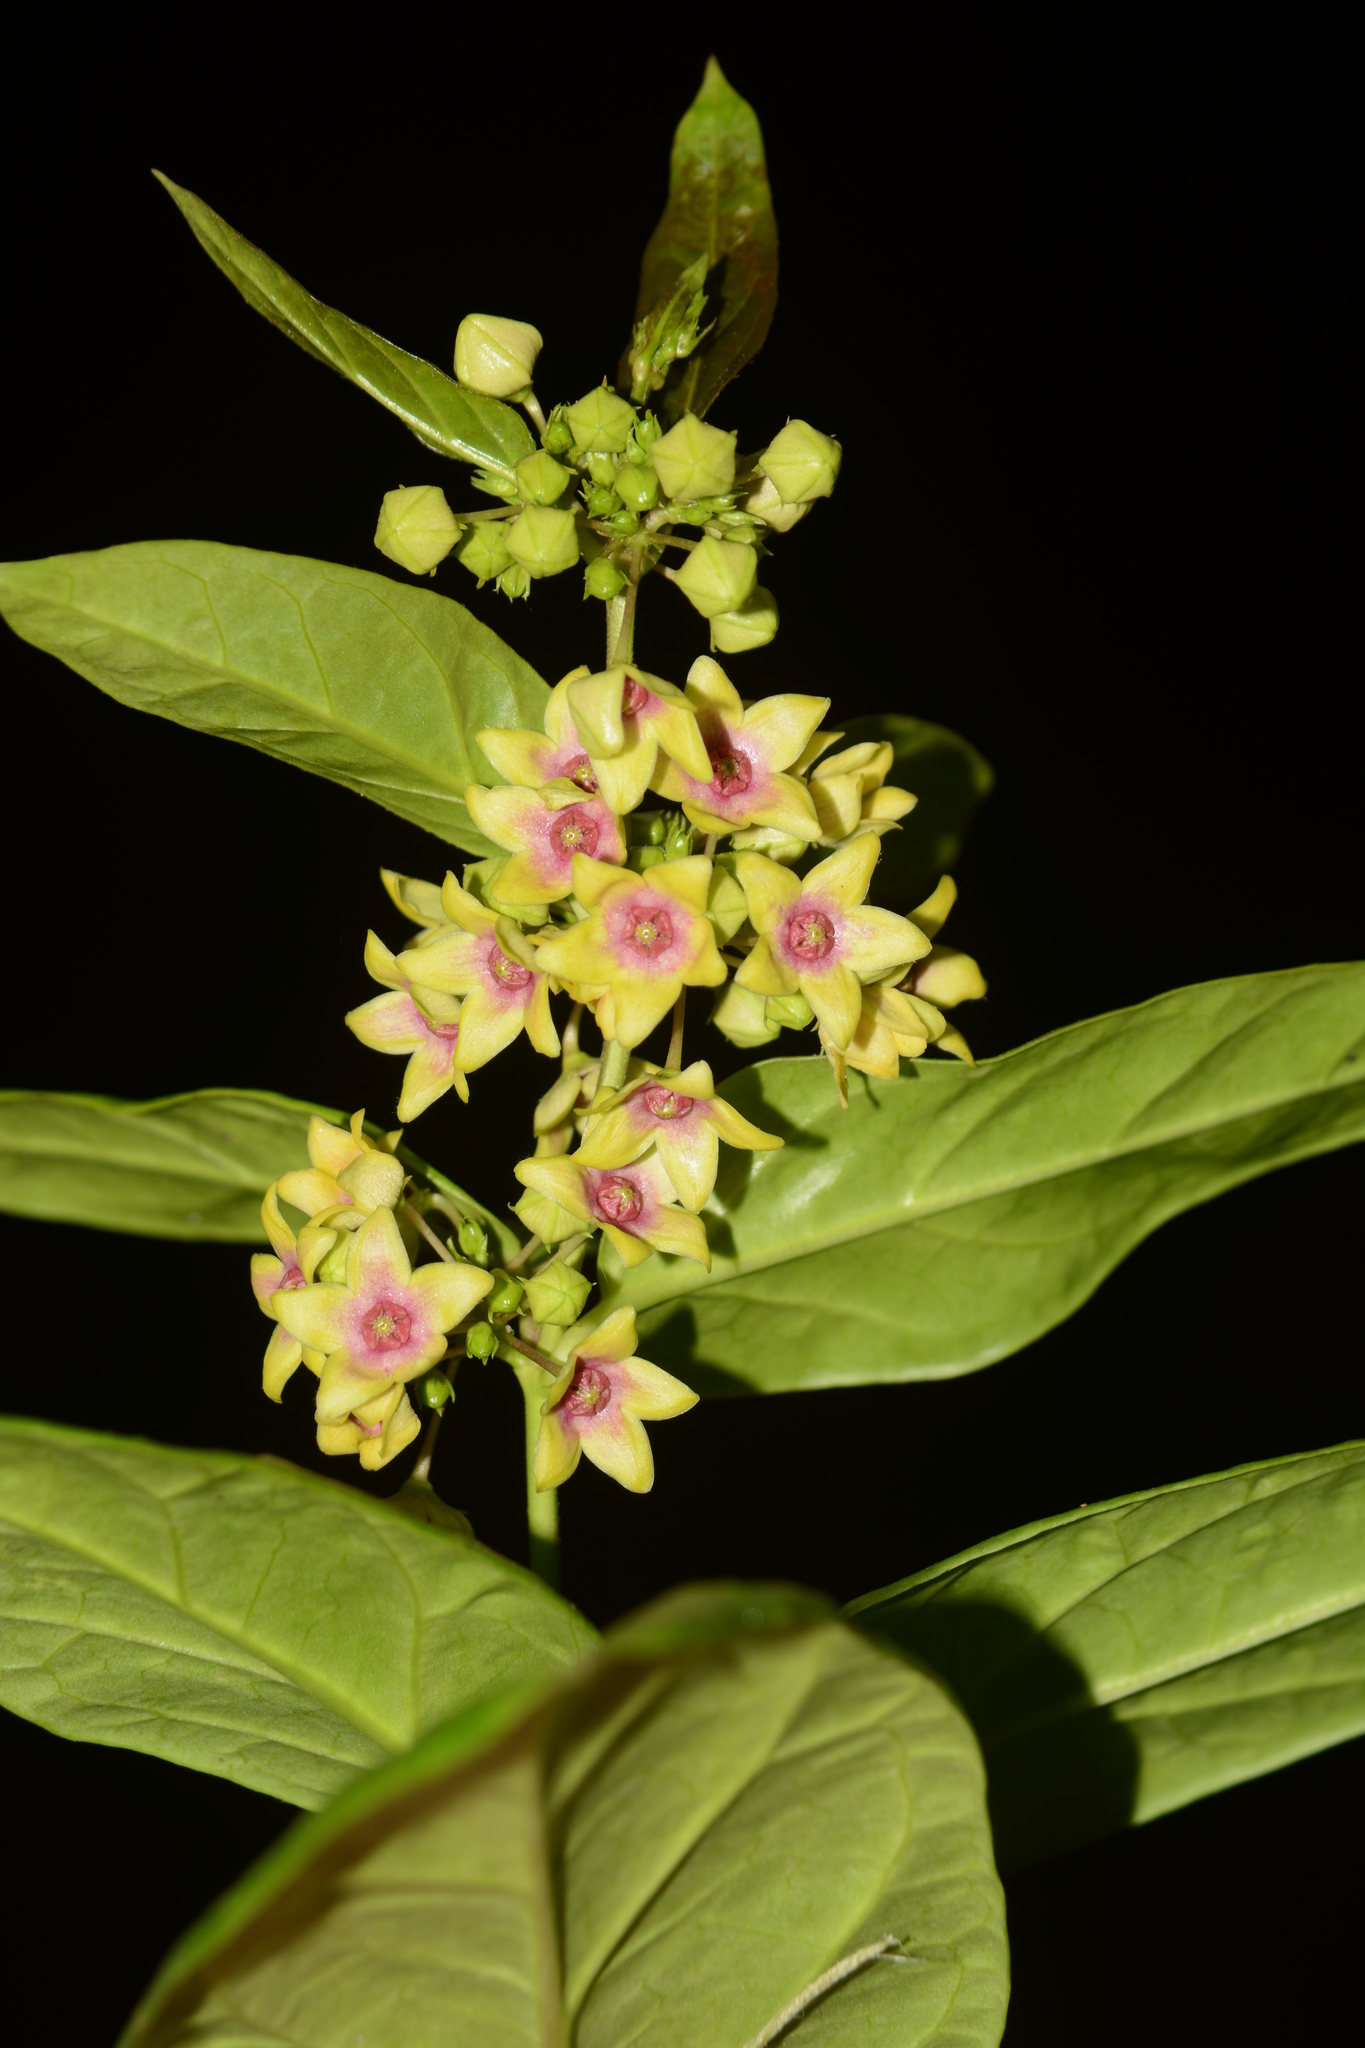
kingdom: Plantae
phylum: Tracheophyta
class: Magnoliopsida
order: Gentianales
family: Apocynaceae
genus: Vincetoxicum
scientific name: Vincetoxicum rotundifolium
